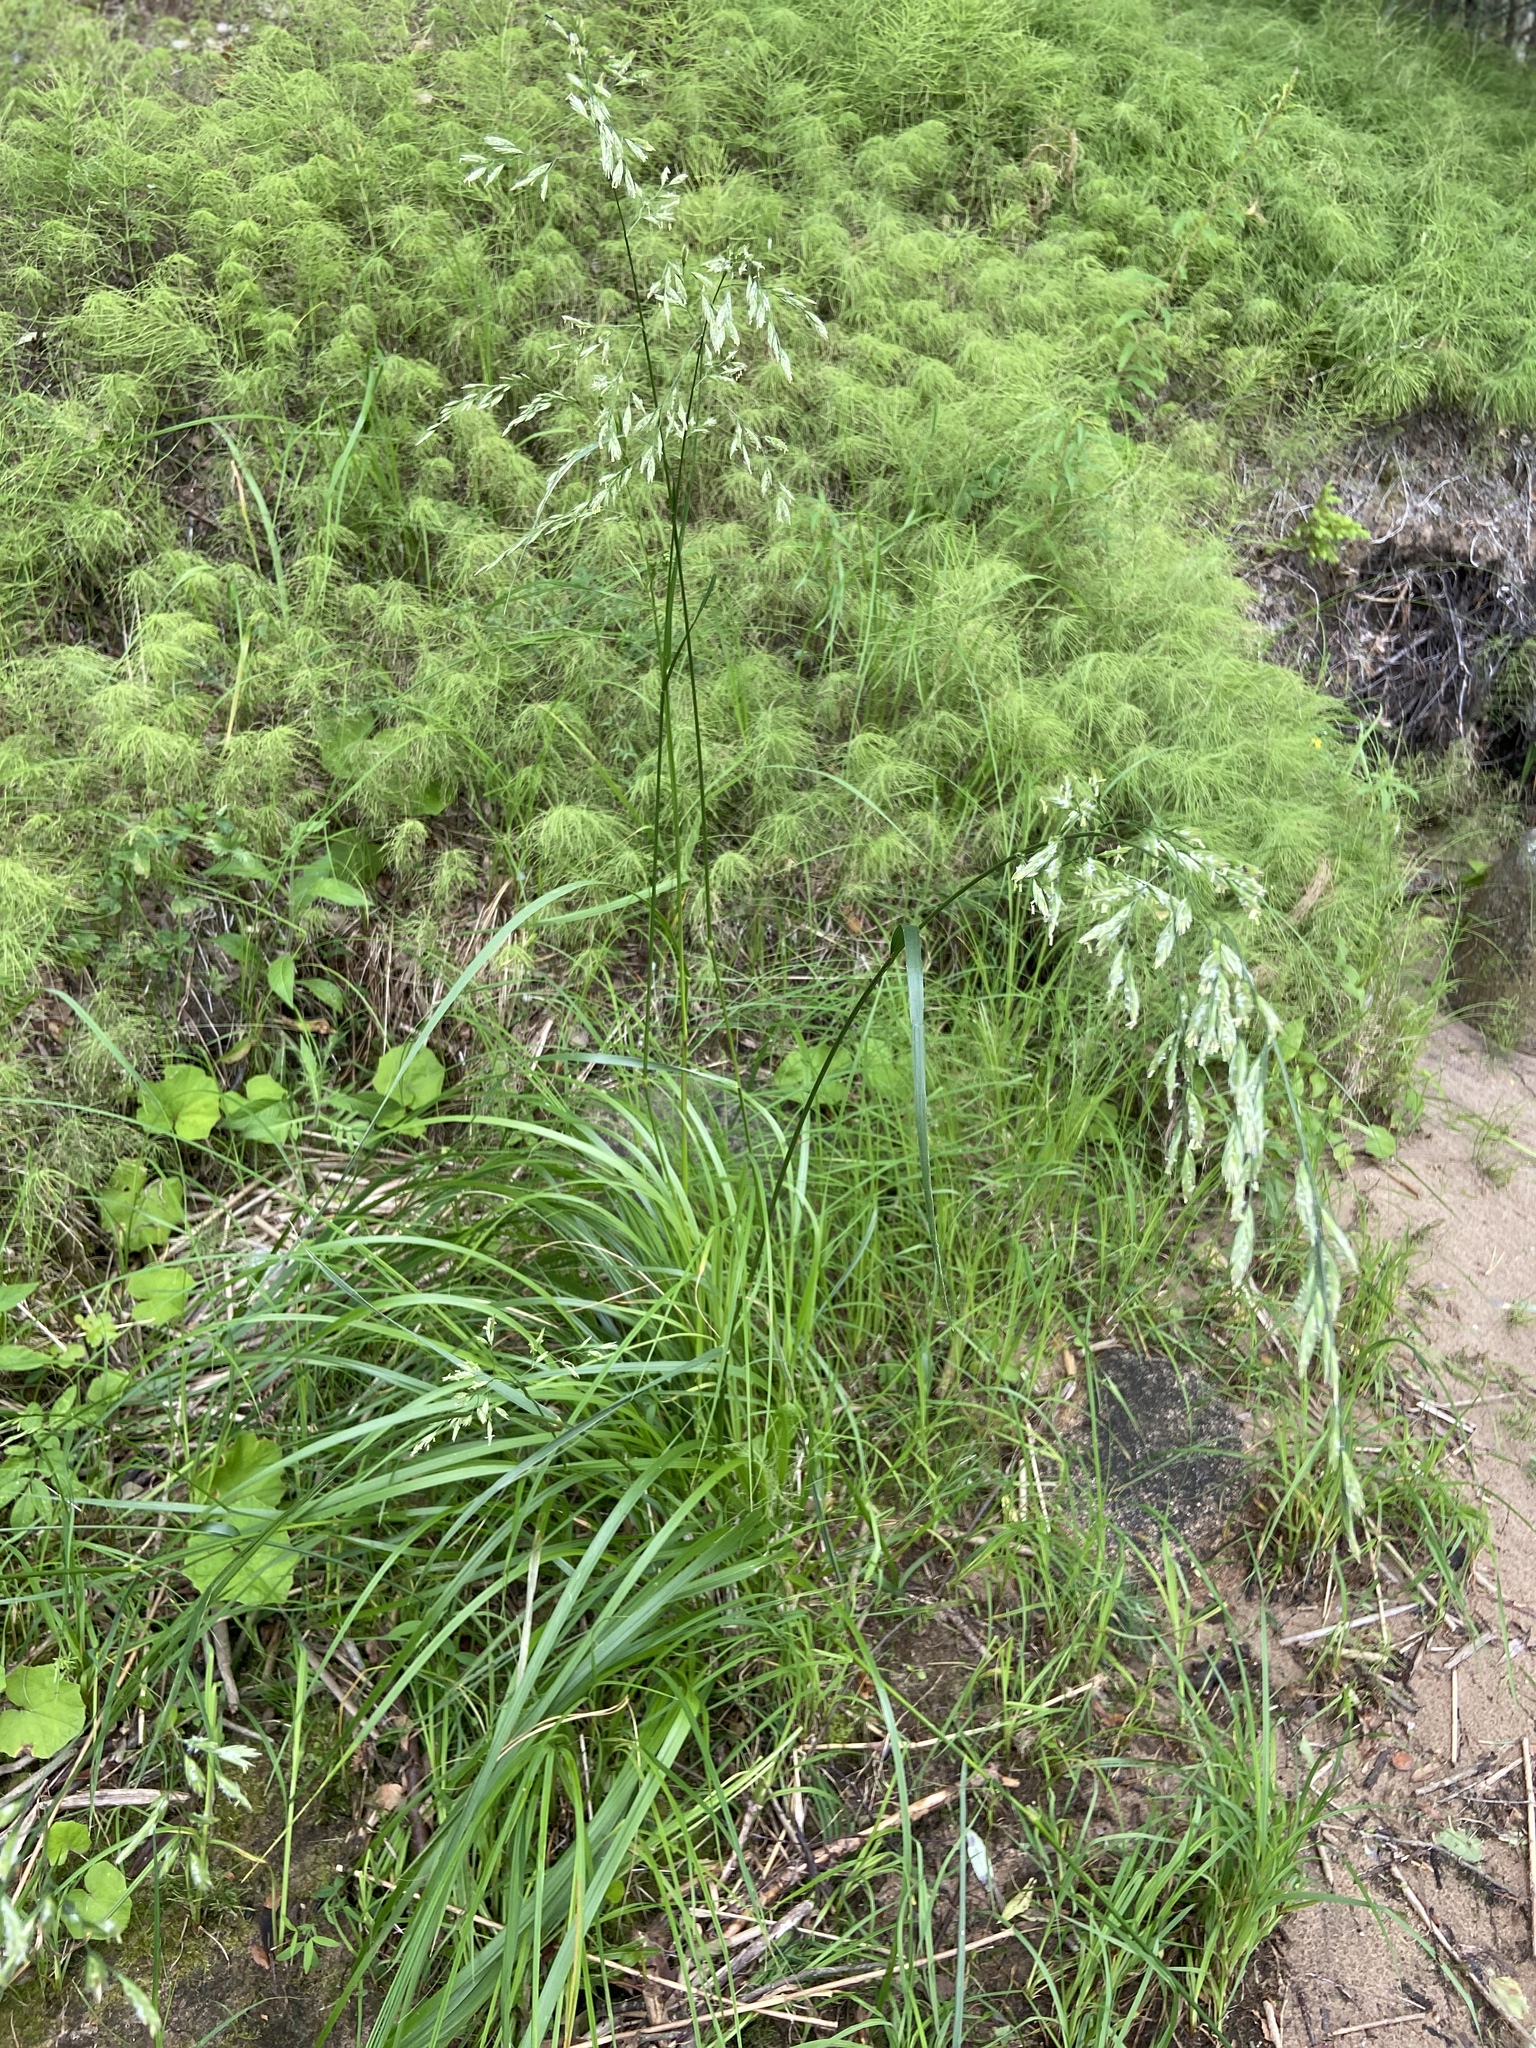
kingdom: Plantae
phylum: Tracheophyta
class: Liliopsida
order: Poales
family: Poaceae
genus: Lolium
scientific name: Lolium arundinaceum
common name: Reed fescue
